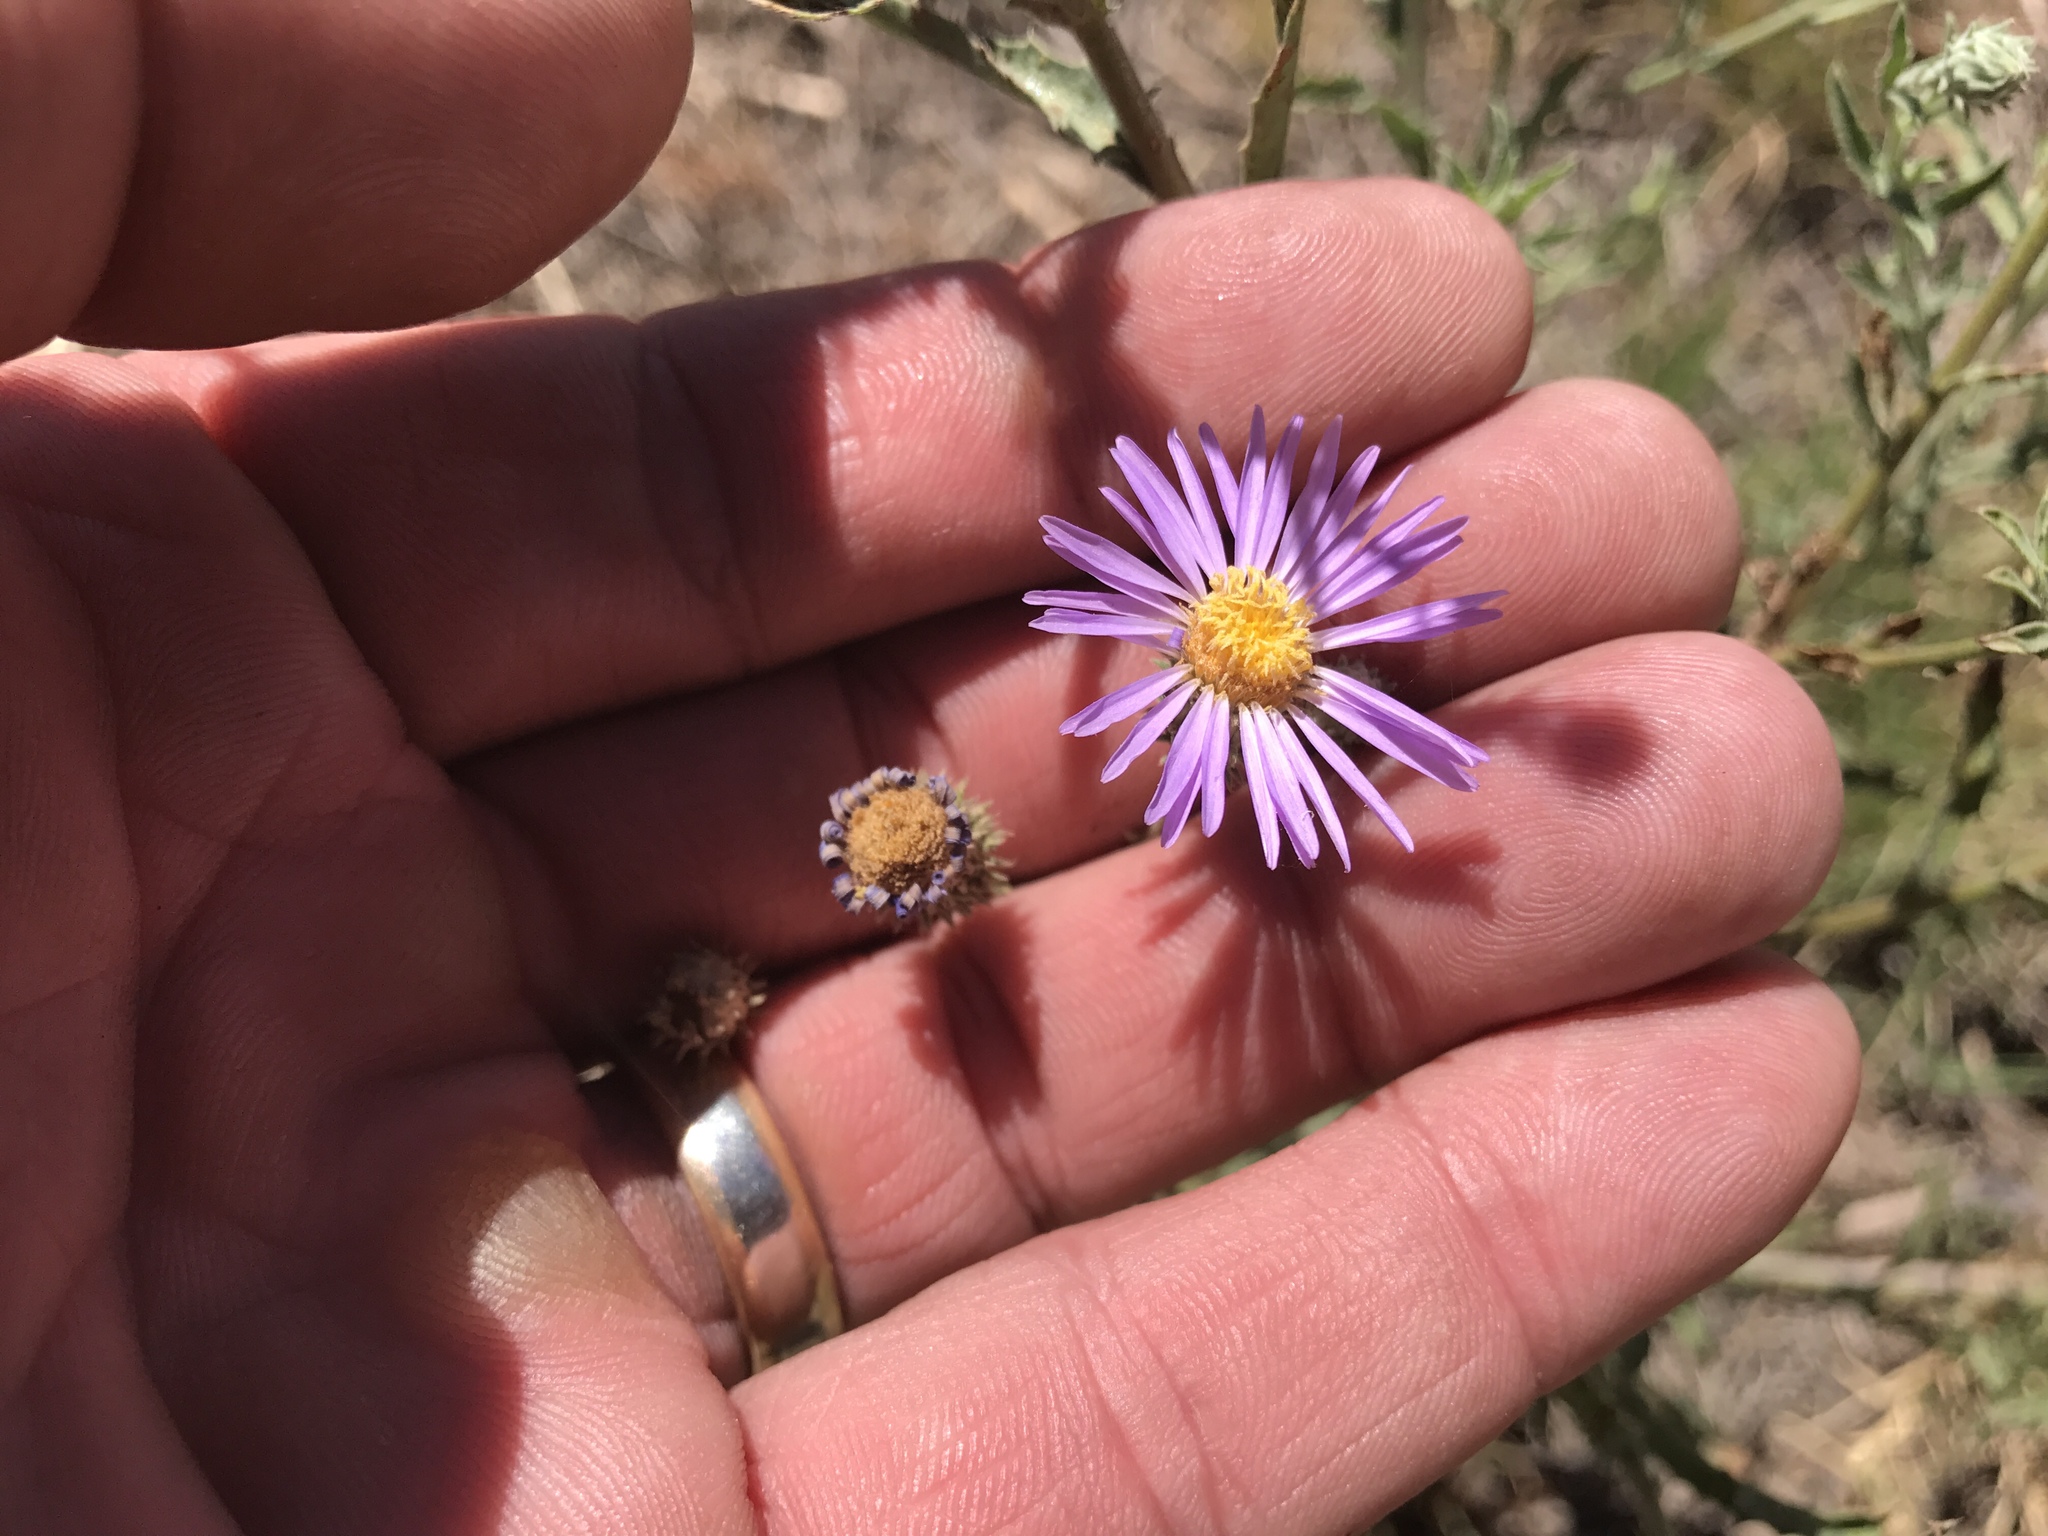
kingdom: Plantae
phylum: Tracheophyta
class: Magnoliopsida
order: Asterales
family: Asteraceae
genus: Machaeranthera
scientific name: Machaeranthera tanacetifolia
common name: Tansy-aster
